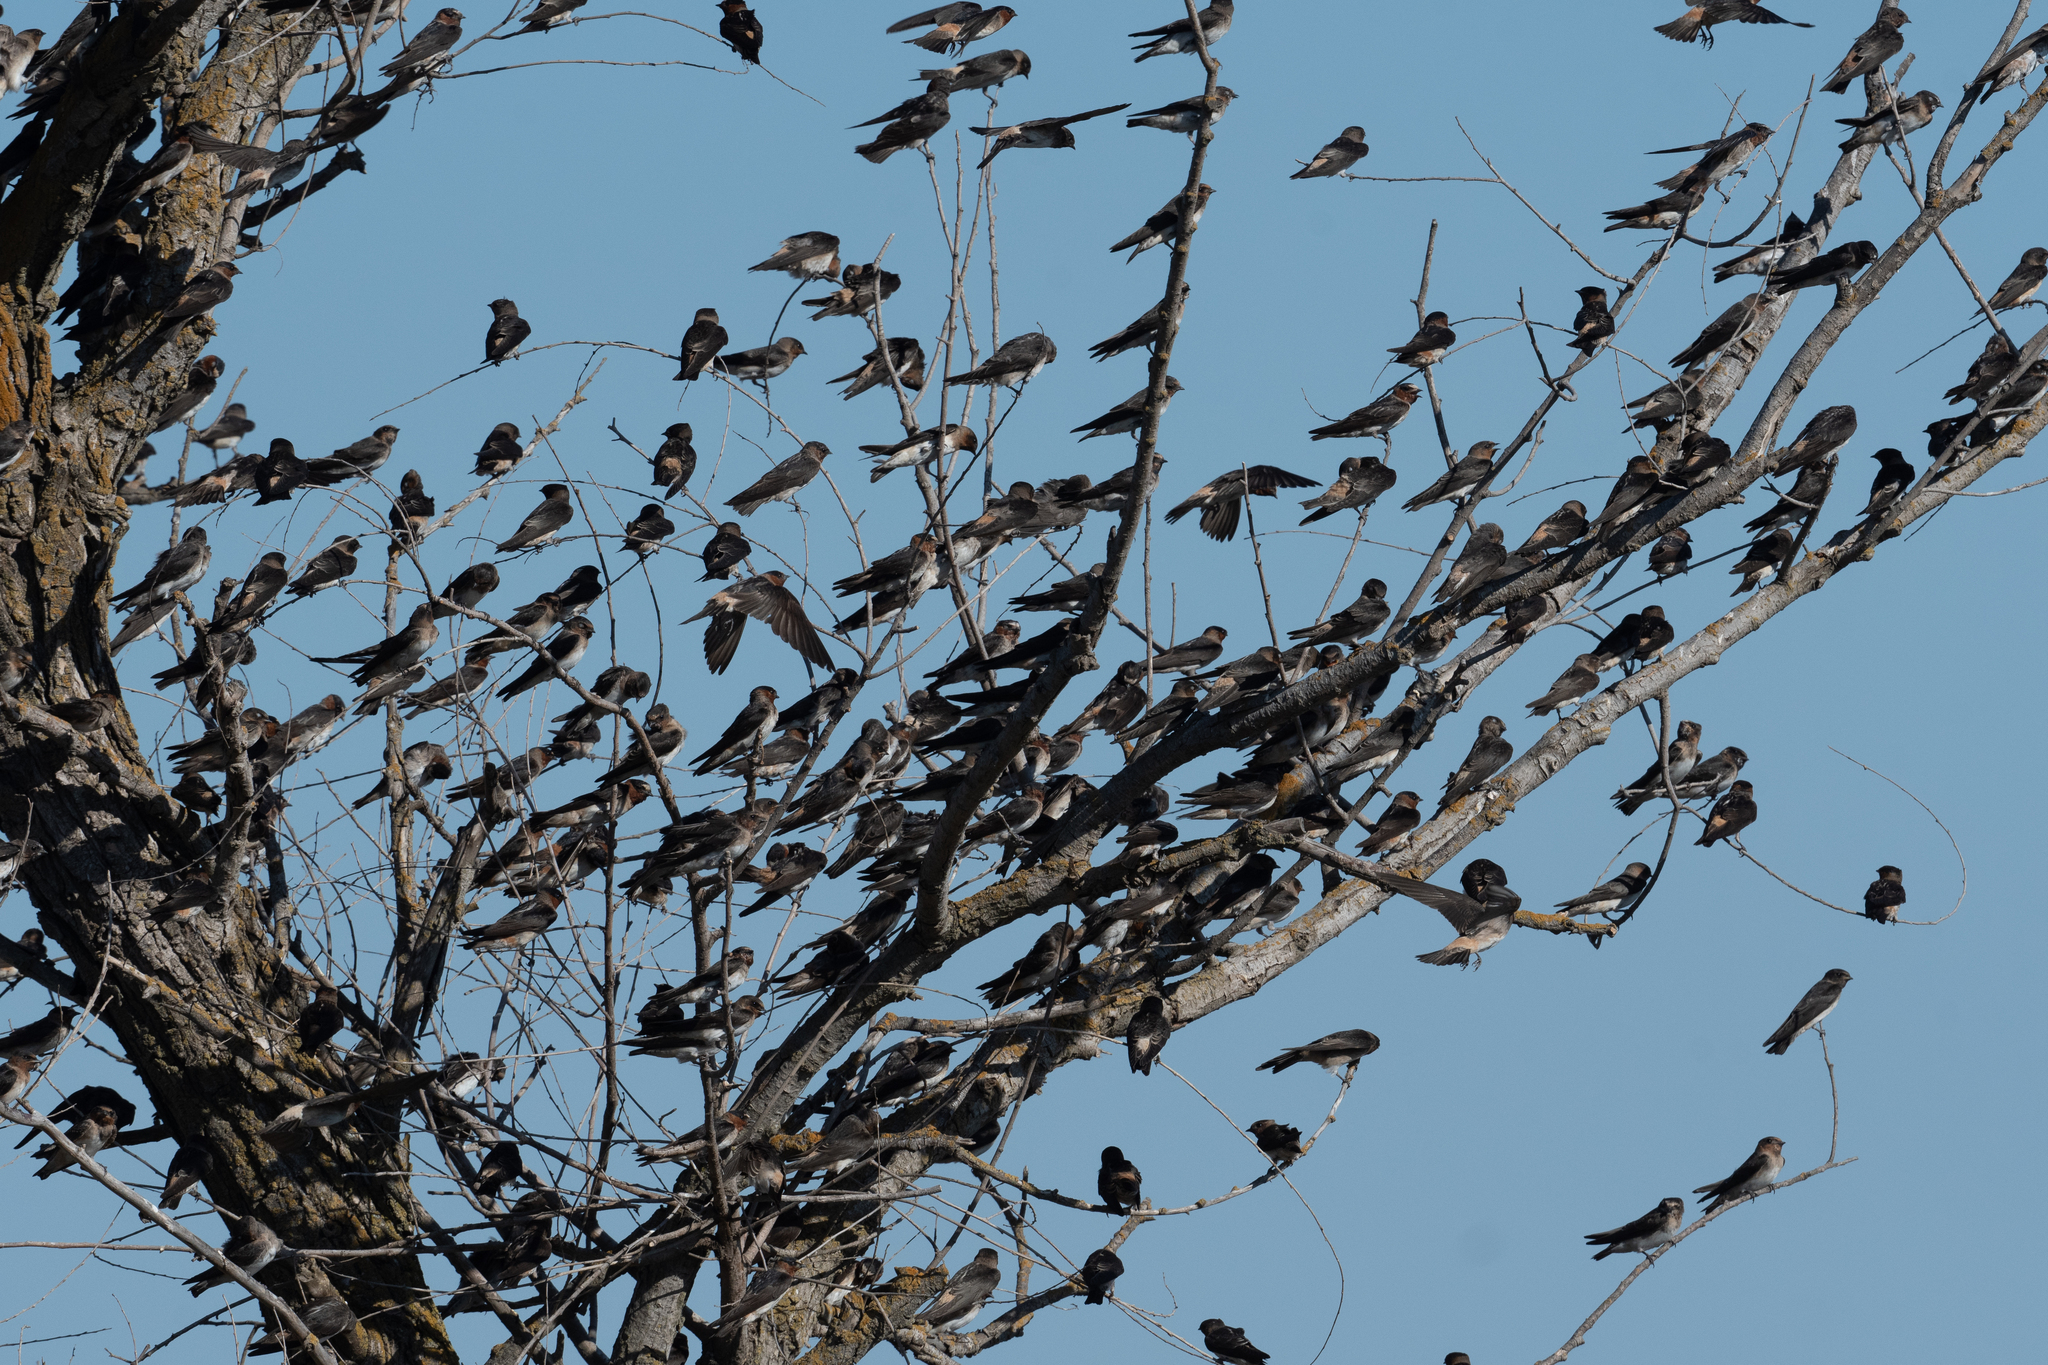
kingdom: Animalia
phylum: Chordata
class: Aves
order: Passeriformes
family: Hirundinidae
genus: Petrochelidon
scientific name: Petrochelidon pyrrhonota
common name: American cliff swallow
